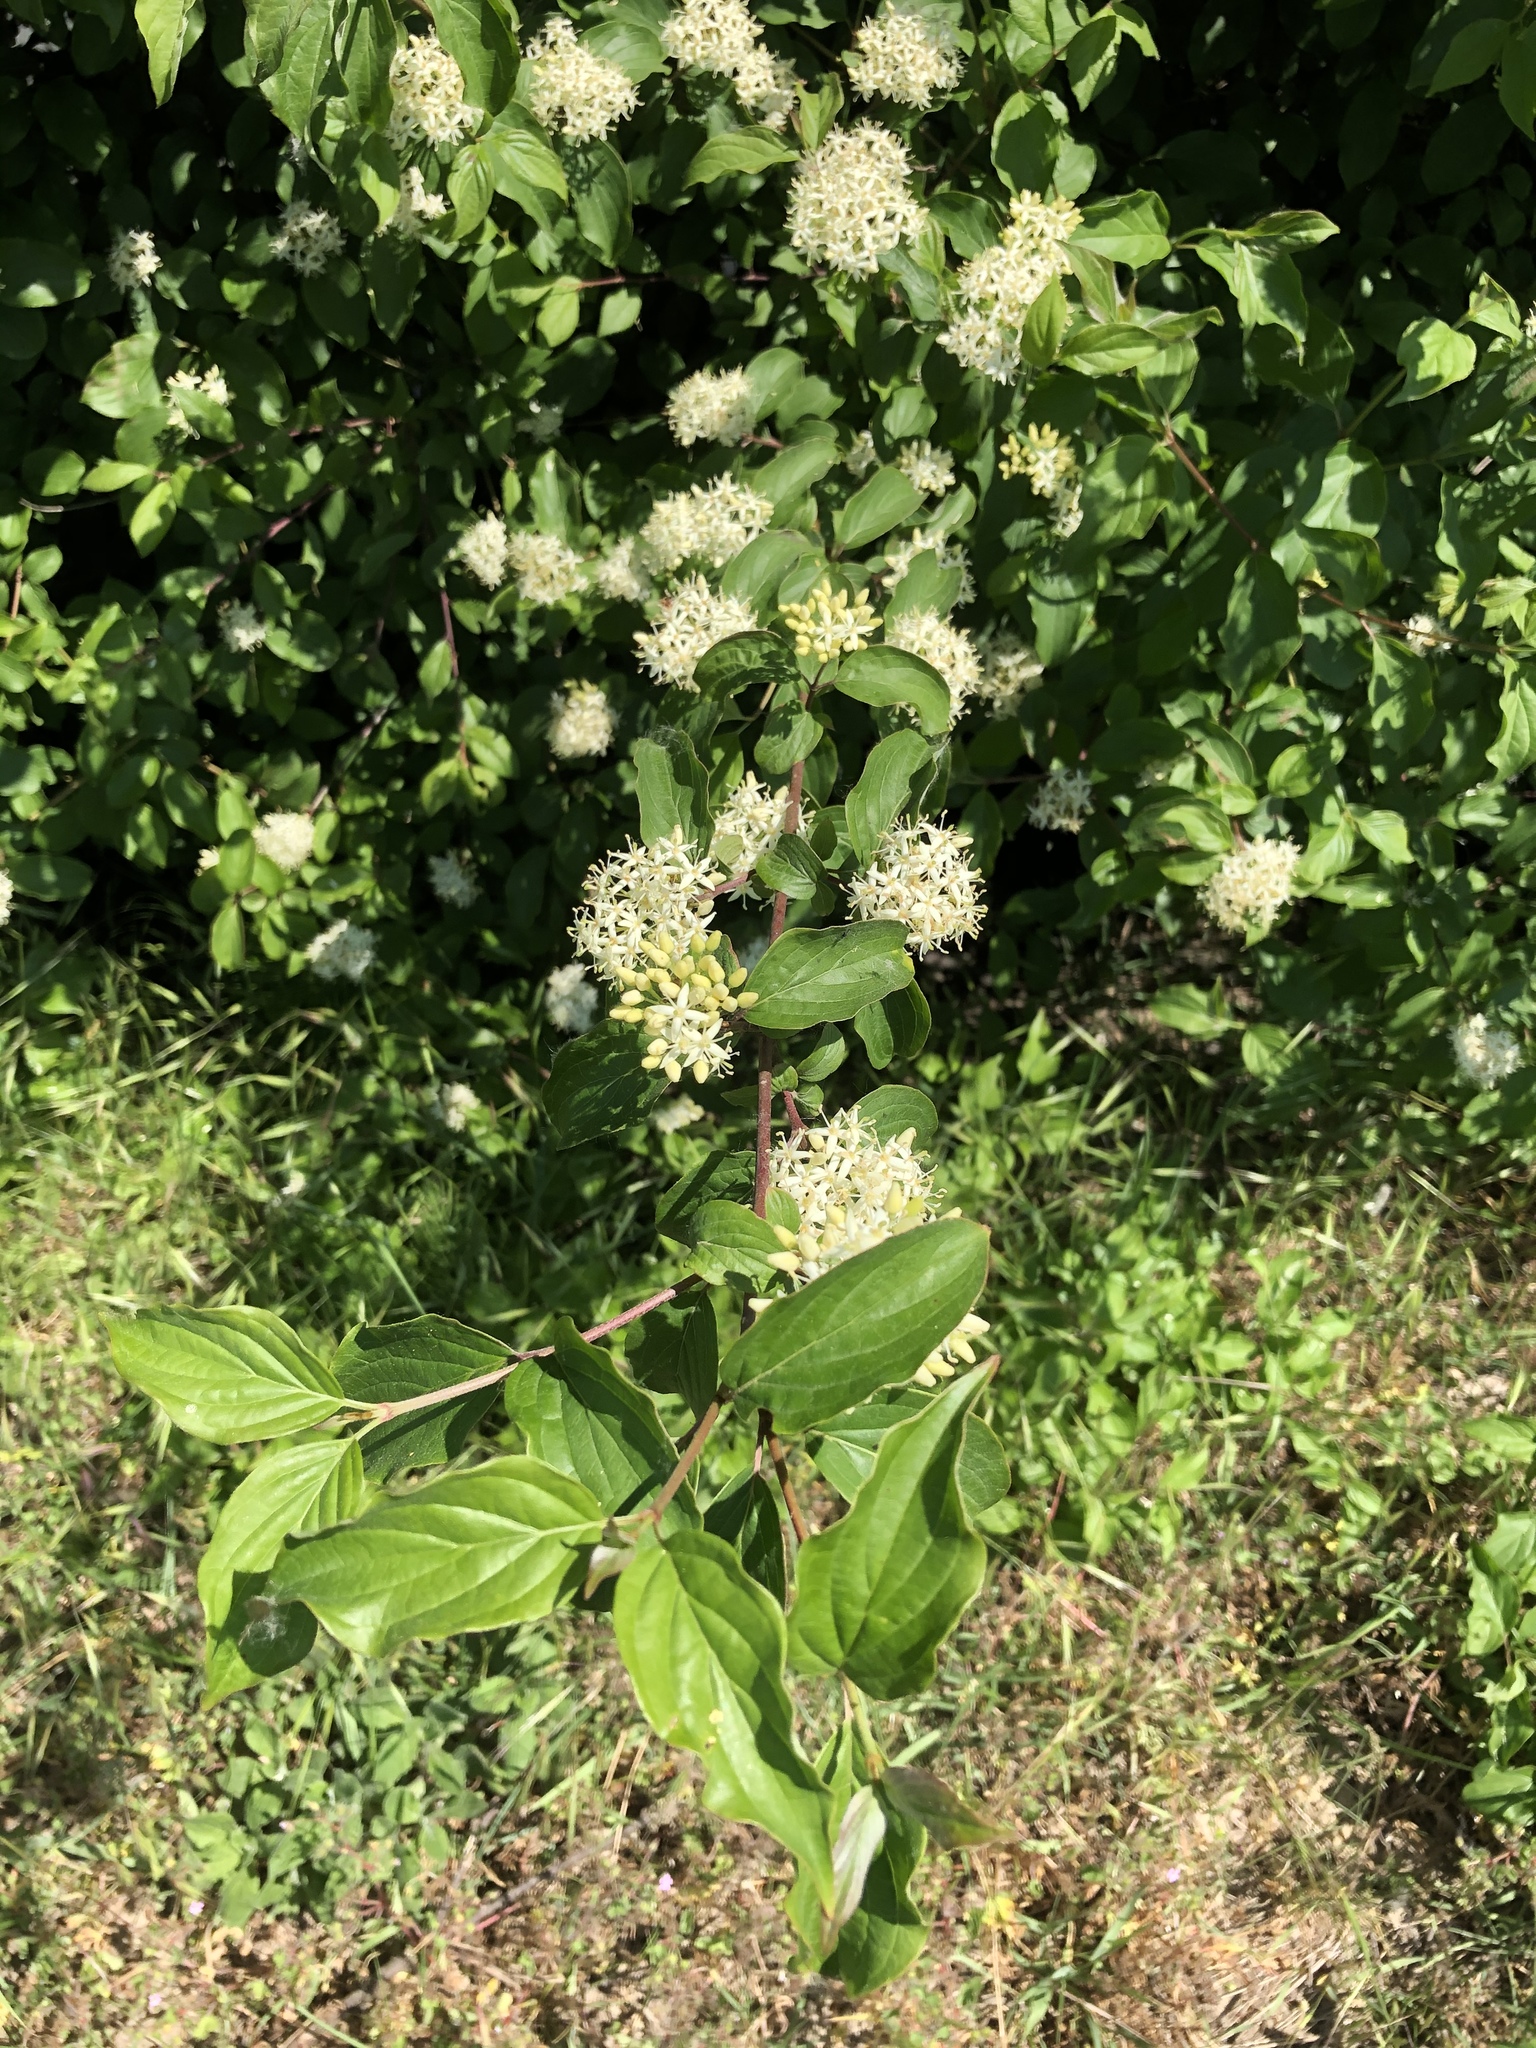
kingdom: Plantae
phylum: Tracheophyta
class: Magnoliopsida
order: Cornales
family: Cornaceae
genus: Cornus
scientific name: Cornus sanguinea
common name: Dogwood
